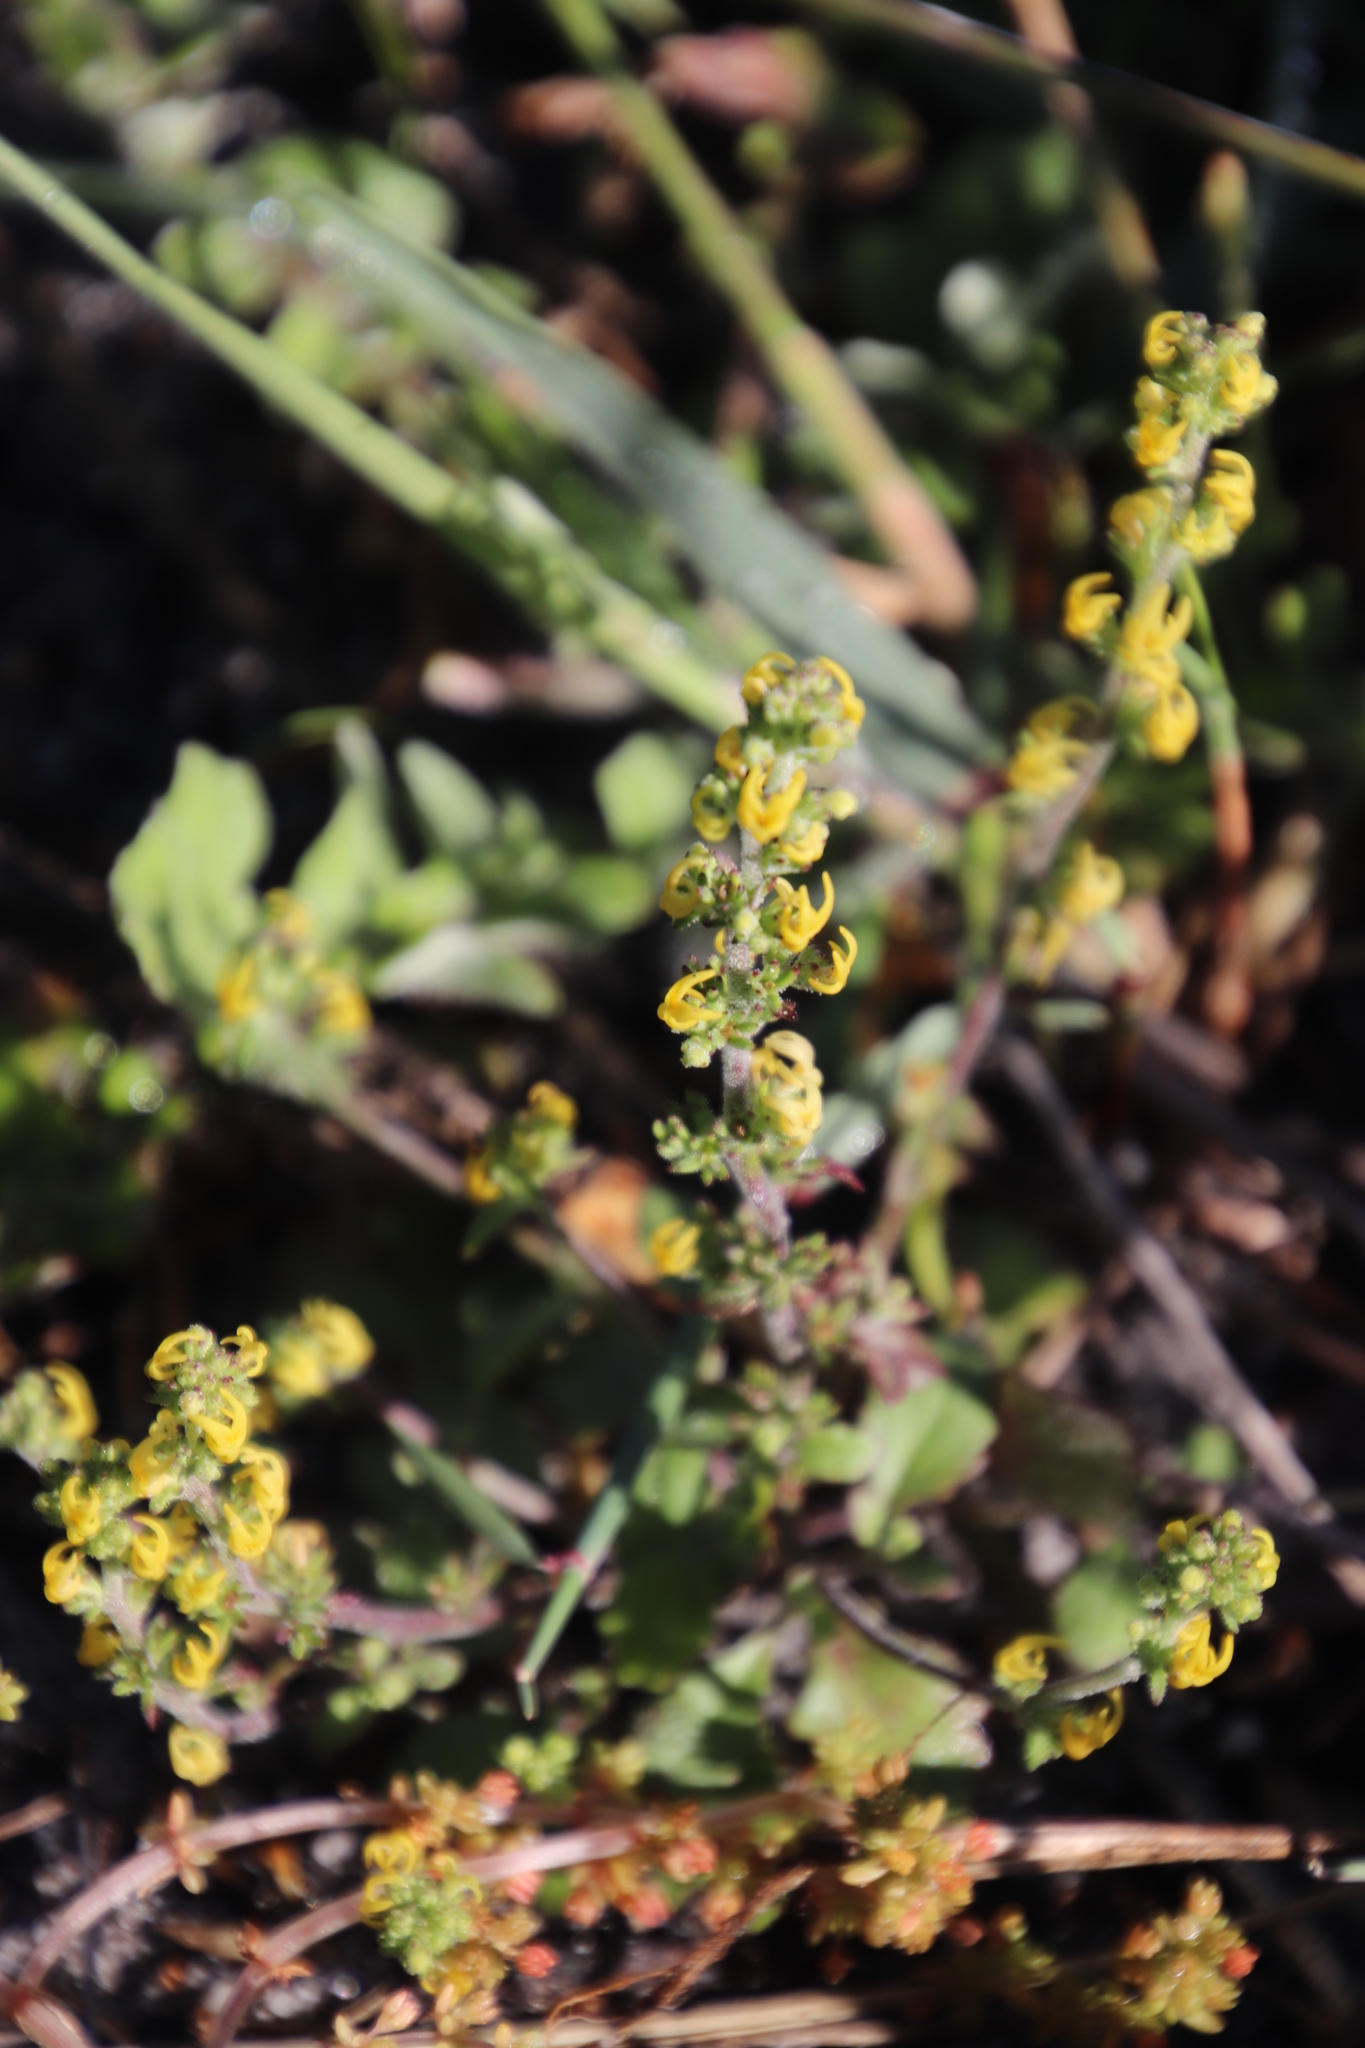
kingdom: Plantae
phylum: Tracheophyta
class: Magnoliopsida
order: Lamiales
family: Scrophulariaceae
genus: Manulea
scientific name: Manulea cheiranthus
